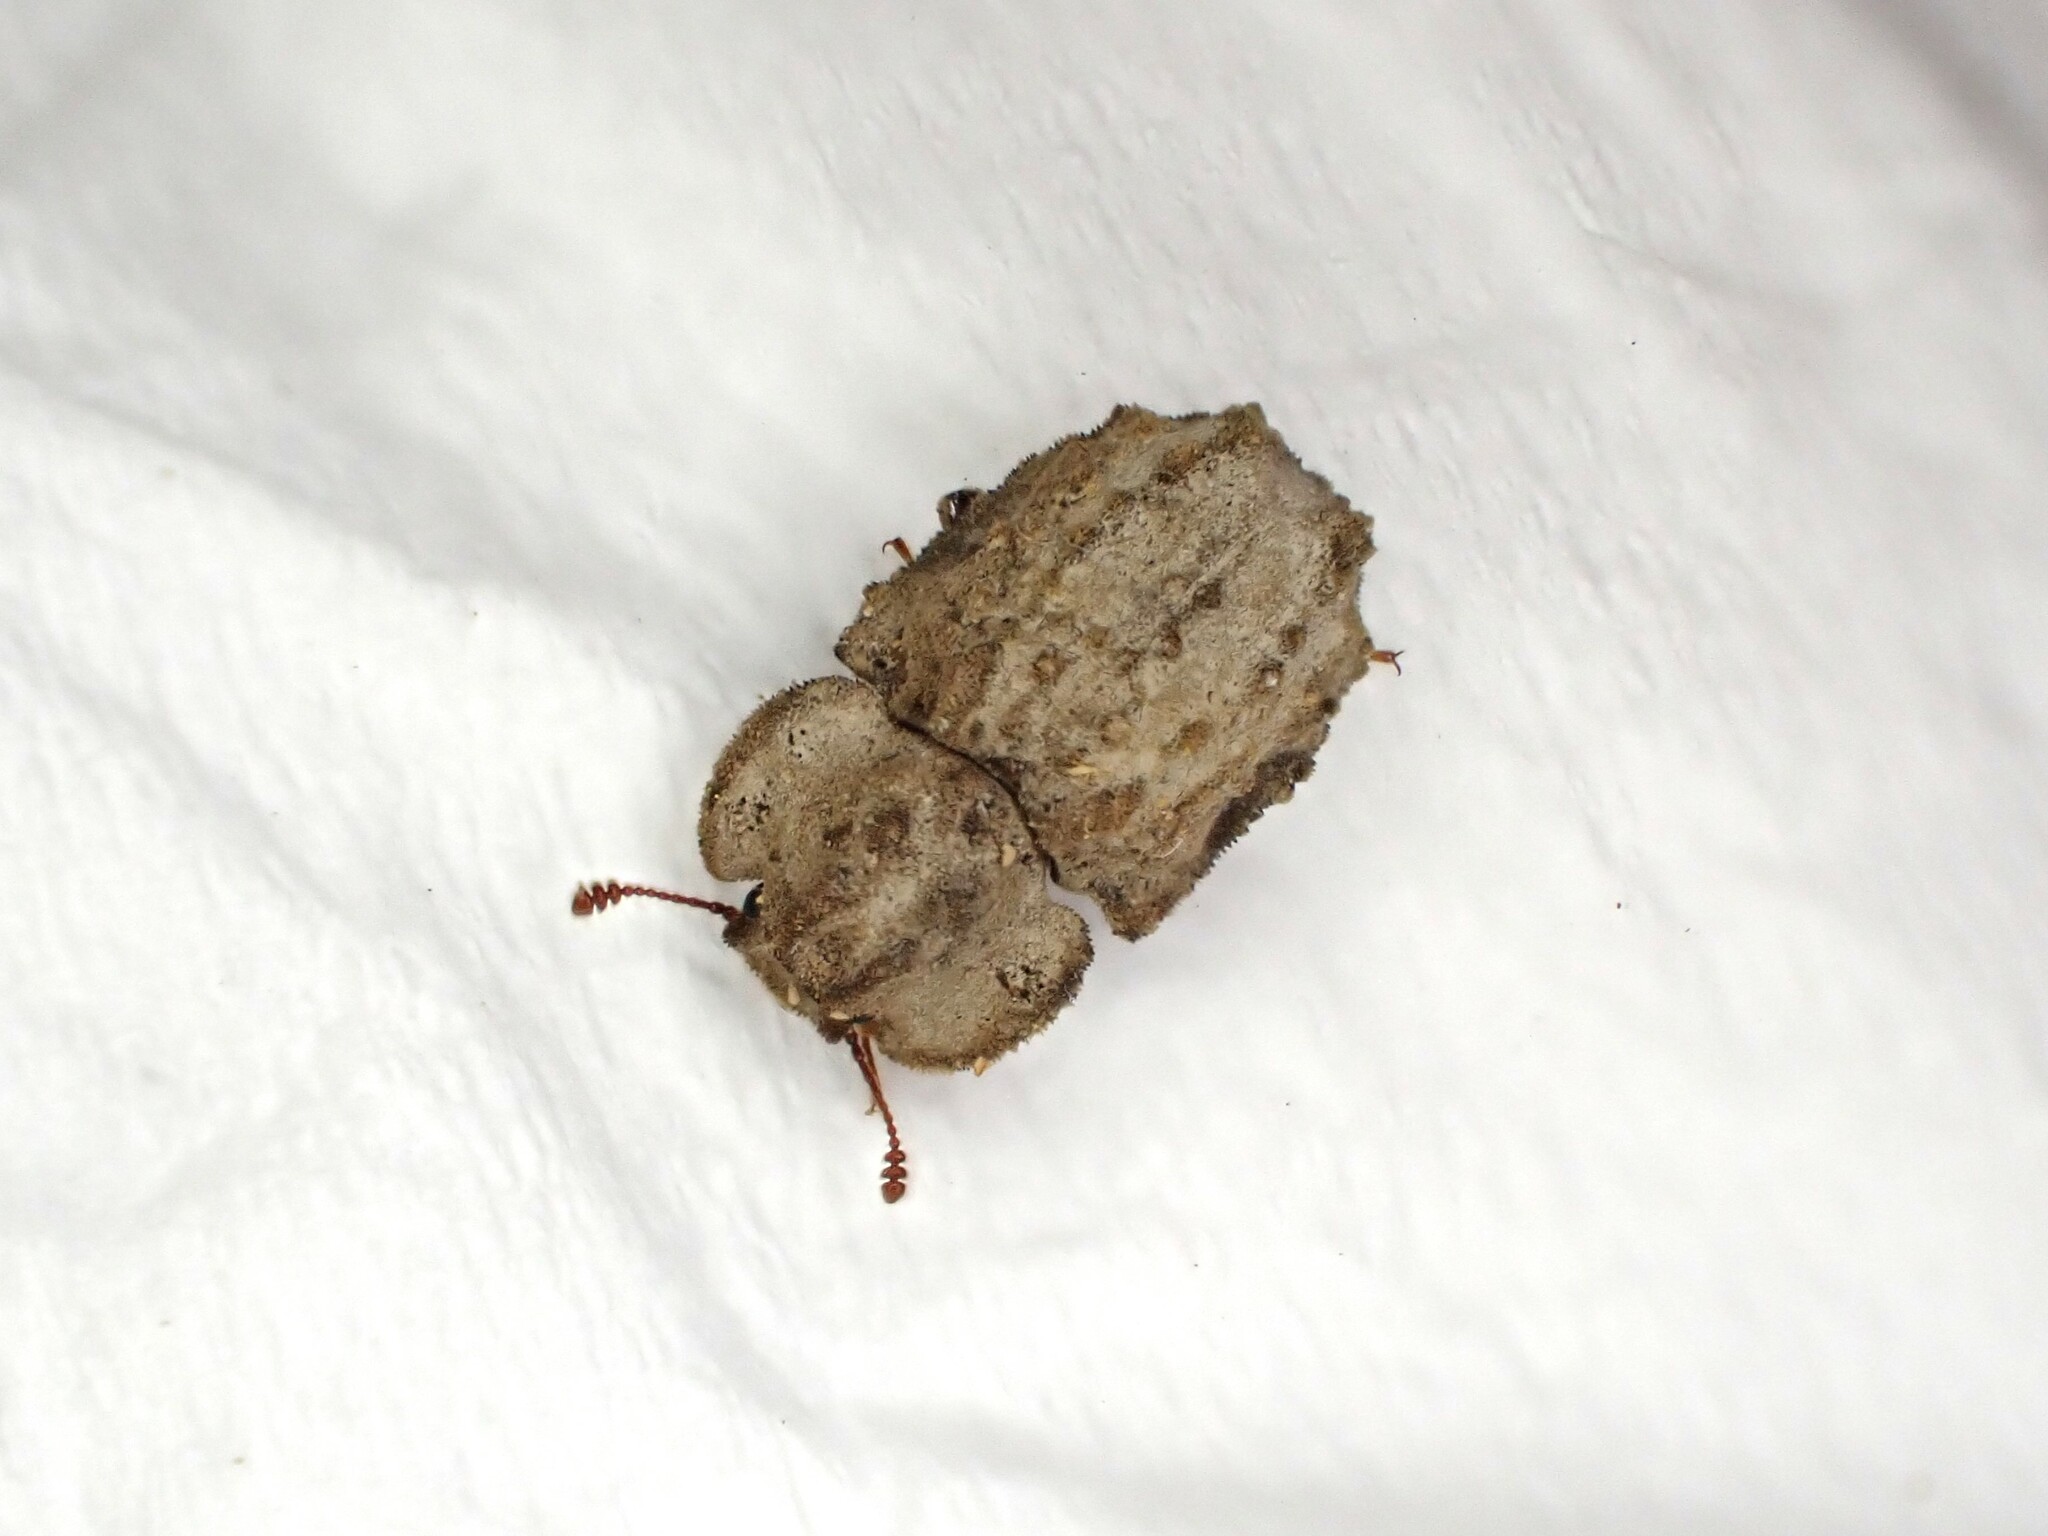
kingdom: Animalia
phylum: Arthropoda
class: Insecta
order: Coleoptera
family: Zopheridae
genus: Pristoderus
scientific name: Pristoderus
